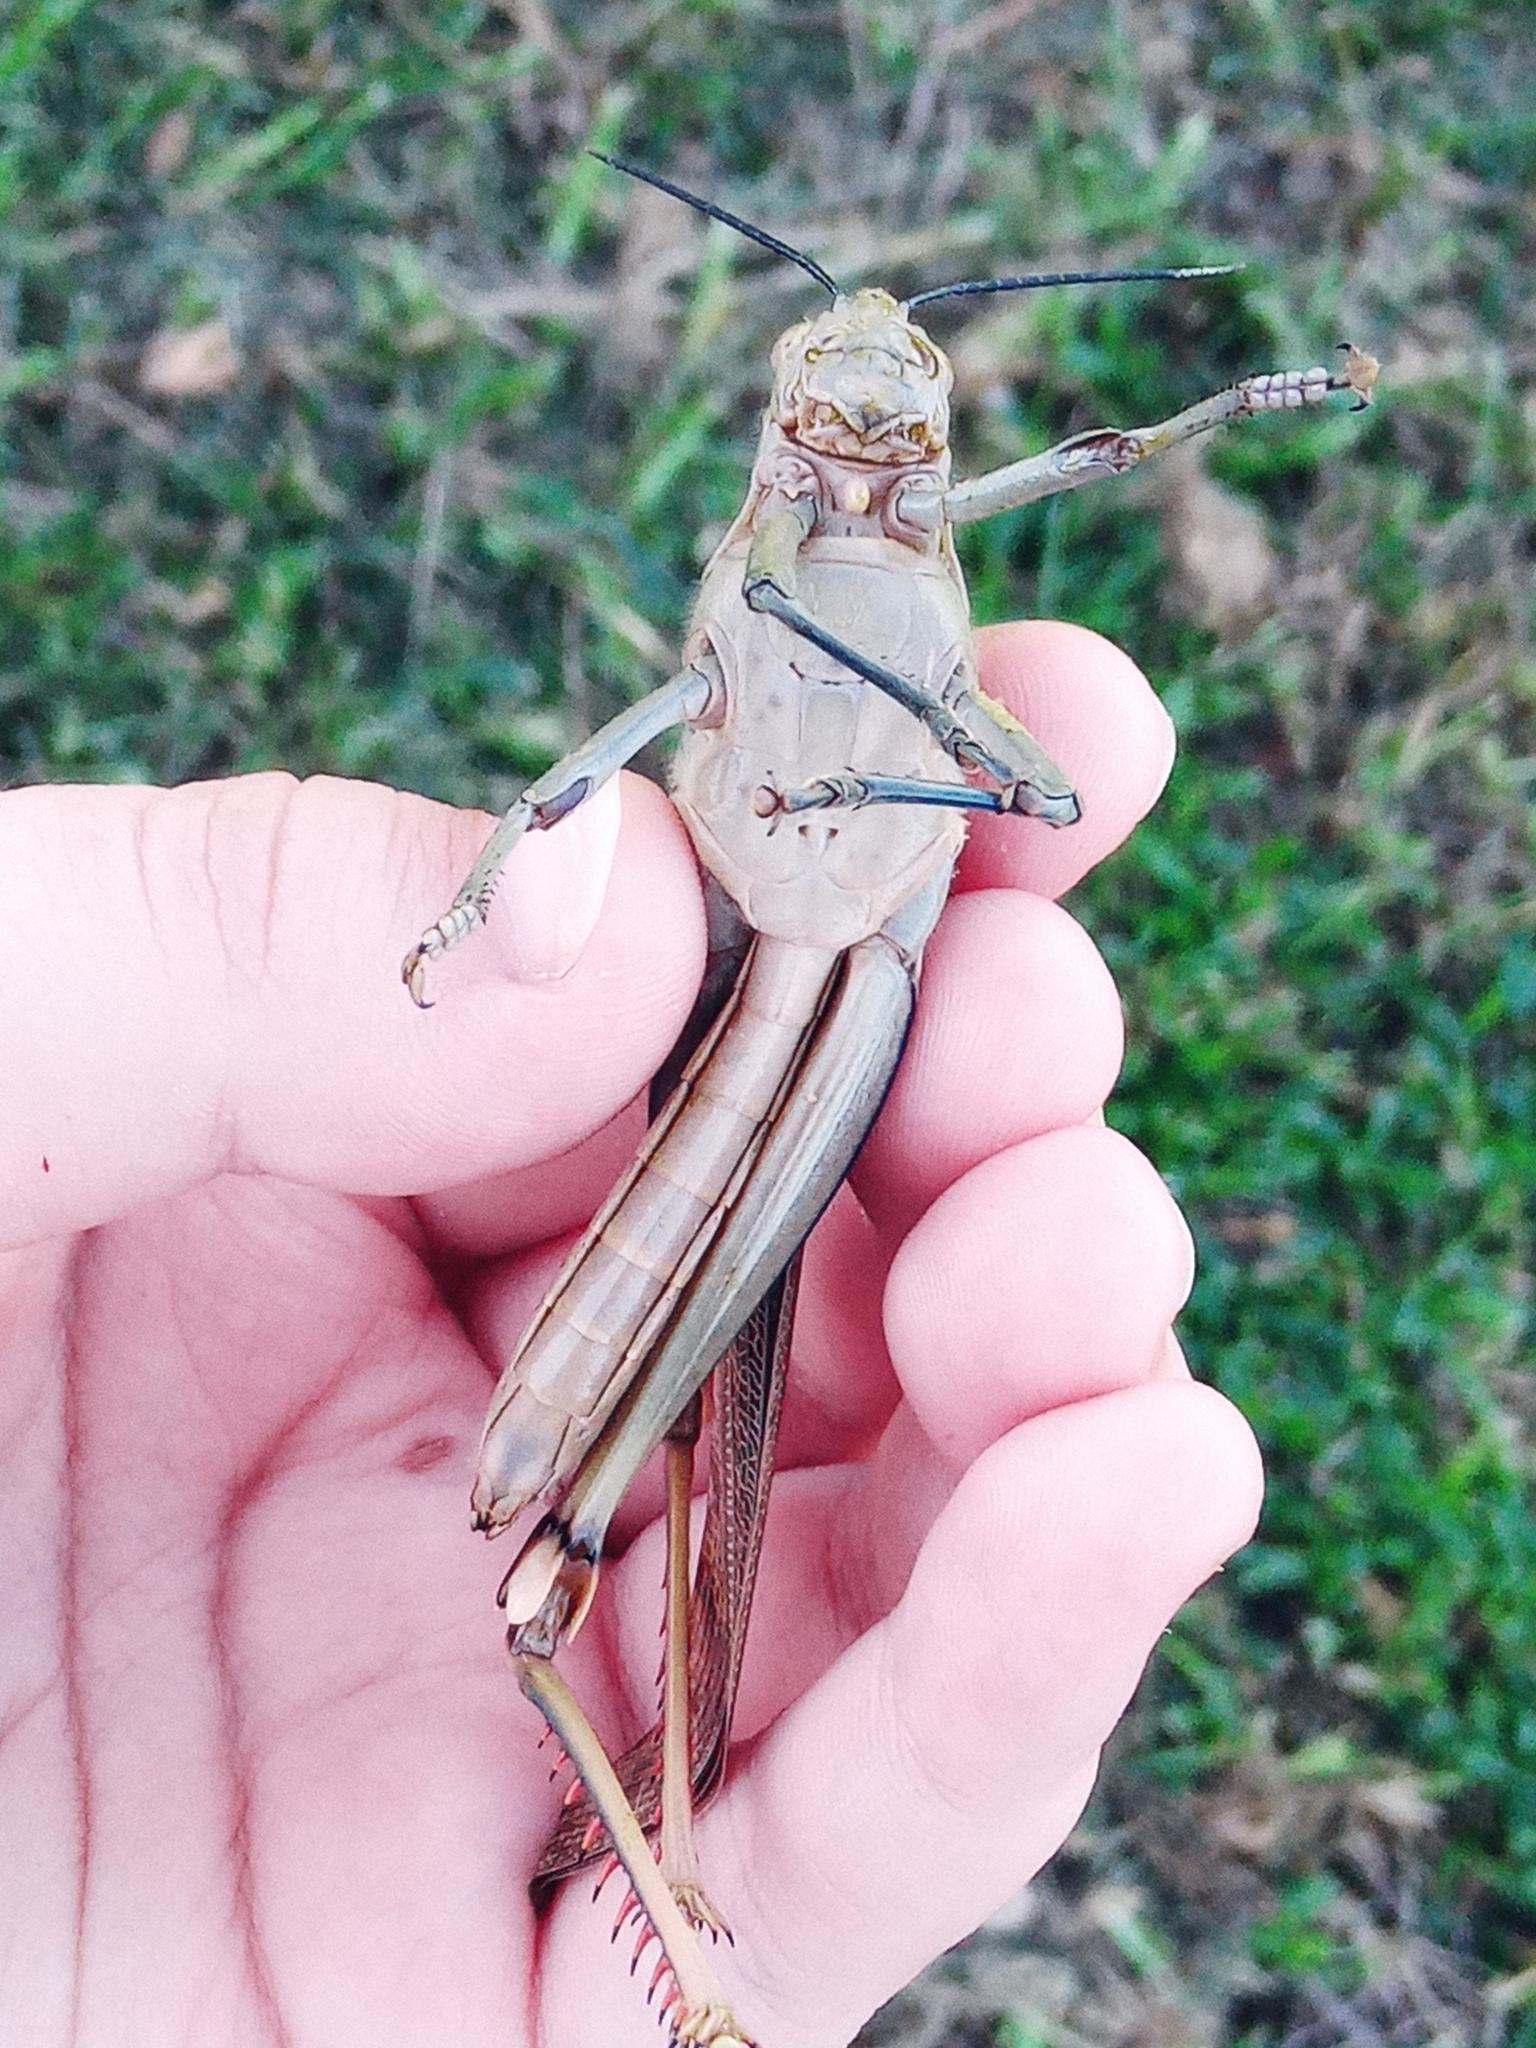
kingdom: Animalia
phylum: Arthropoda
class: Insecta
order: Orthoptera
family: Acrididae
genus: Valanga
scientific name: Valanga irregularis
